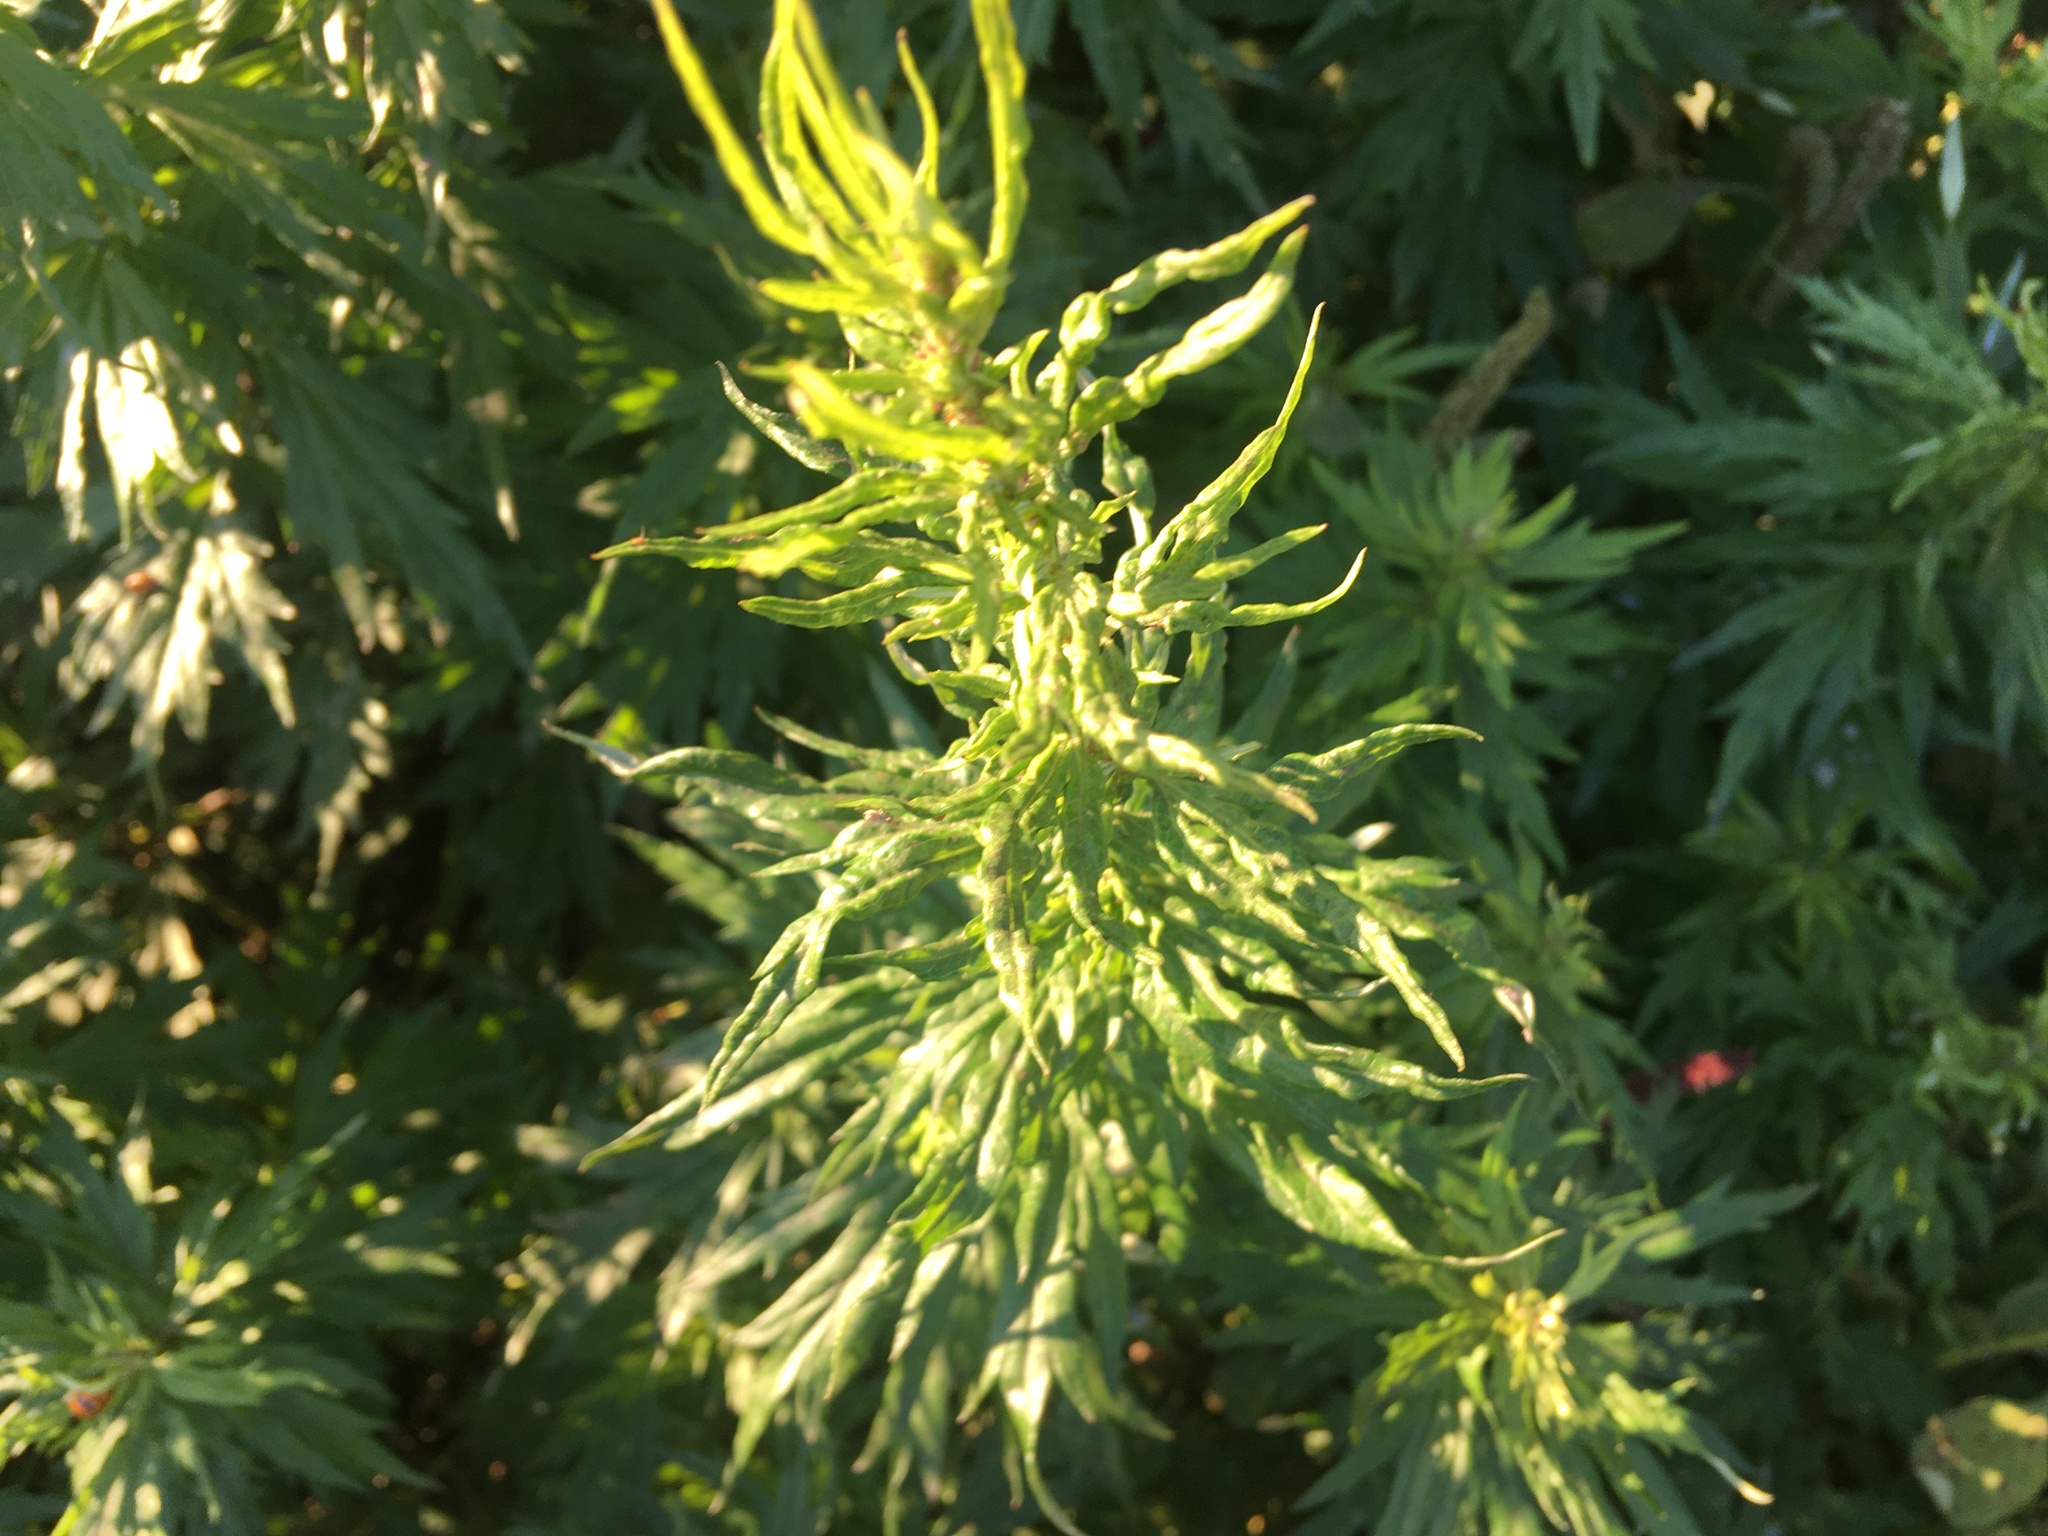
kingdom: Plantae
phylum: Tracheophyta
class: Magnoliopsida
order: Asterales
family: Asteraceae
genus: Artemisia
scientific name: Artemisia vulgaris
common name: Mugwort
